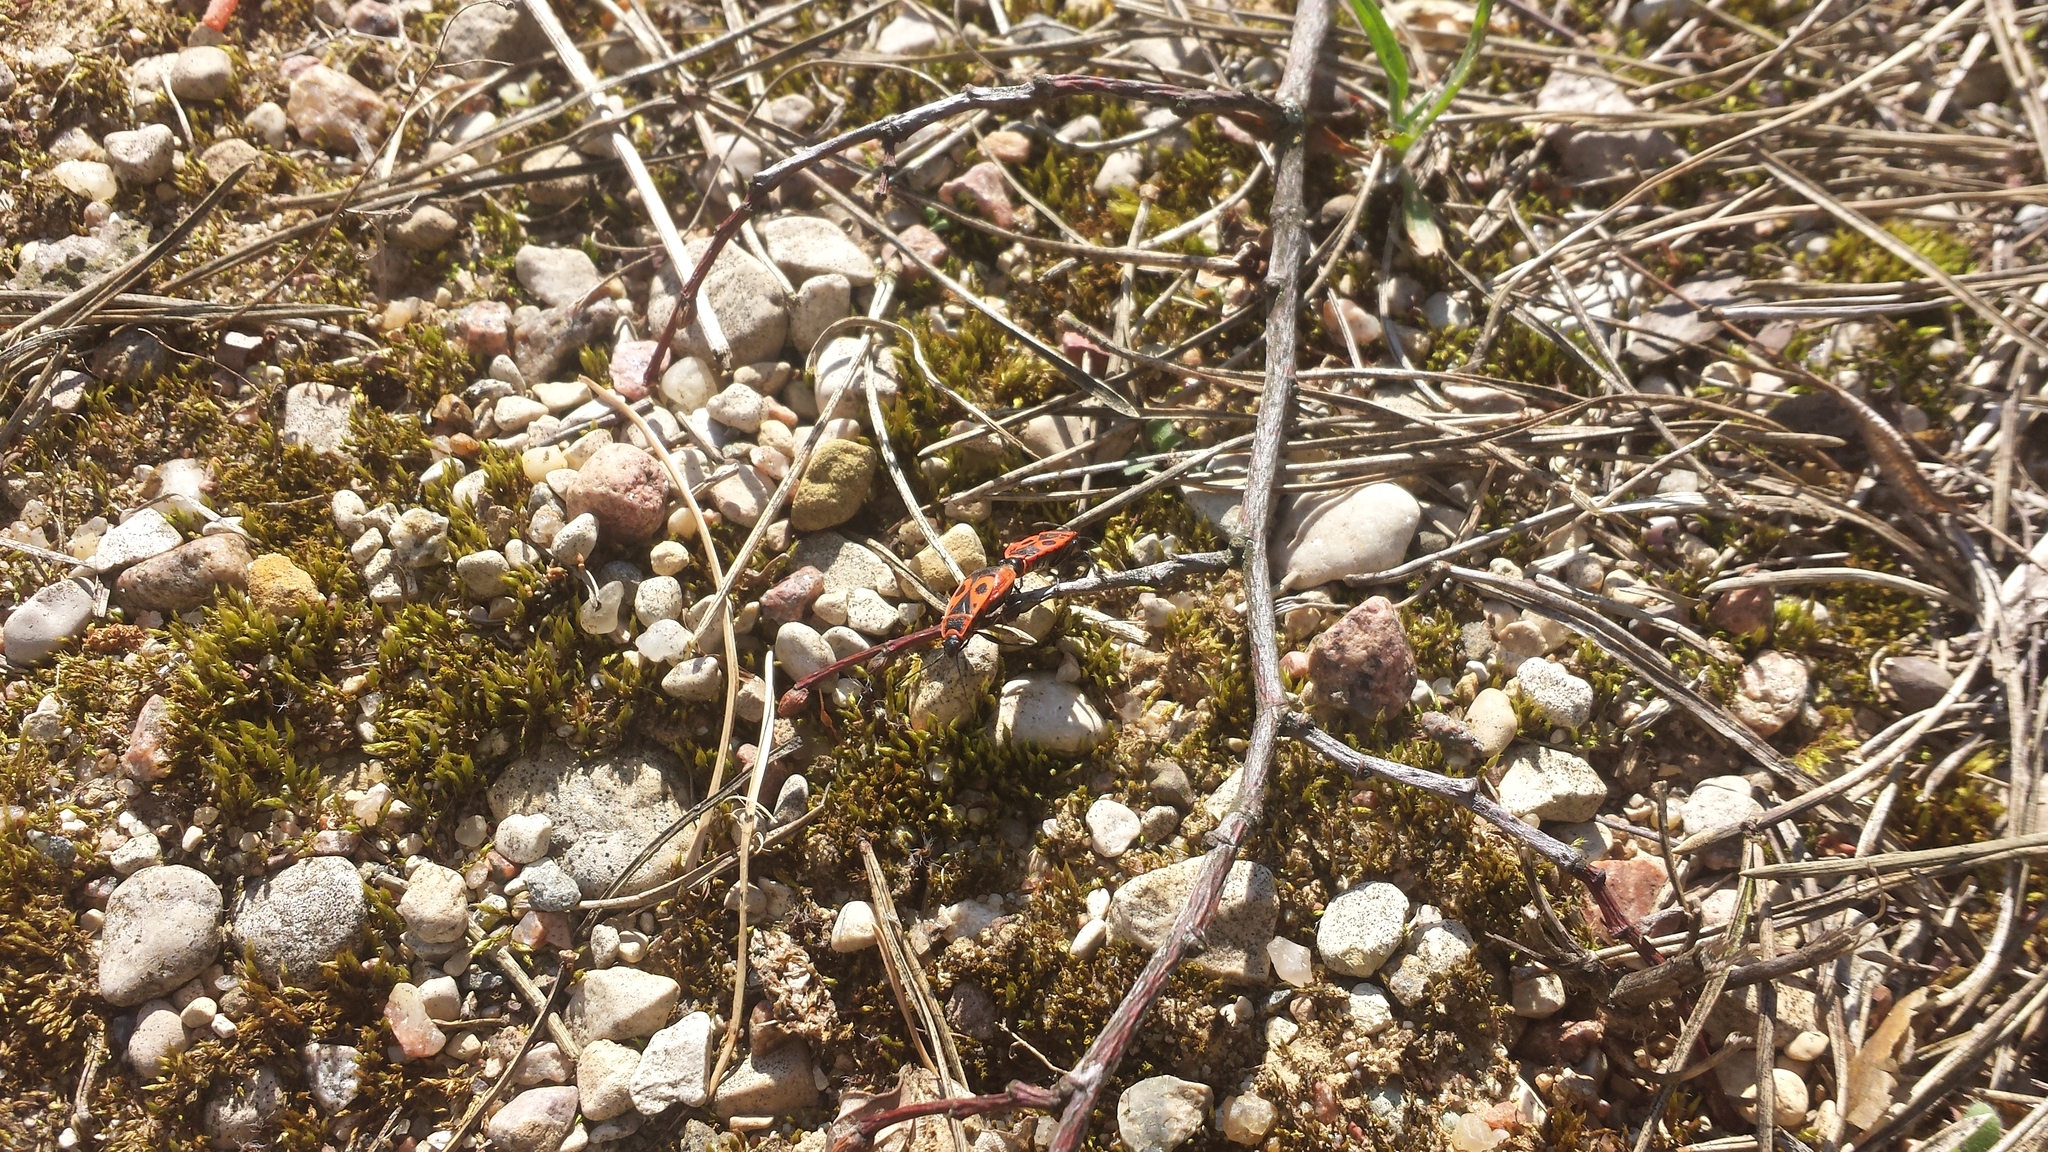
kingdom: Animalia
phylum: Arthropoda
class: Insecta
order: Hemiptera
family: Pyrrhocoridae
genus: Pyrrhocoris
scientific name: Pyrrhocoris apterus
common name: Firebug
